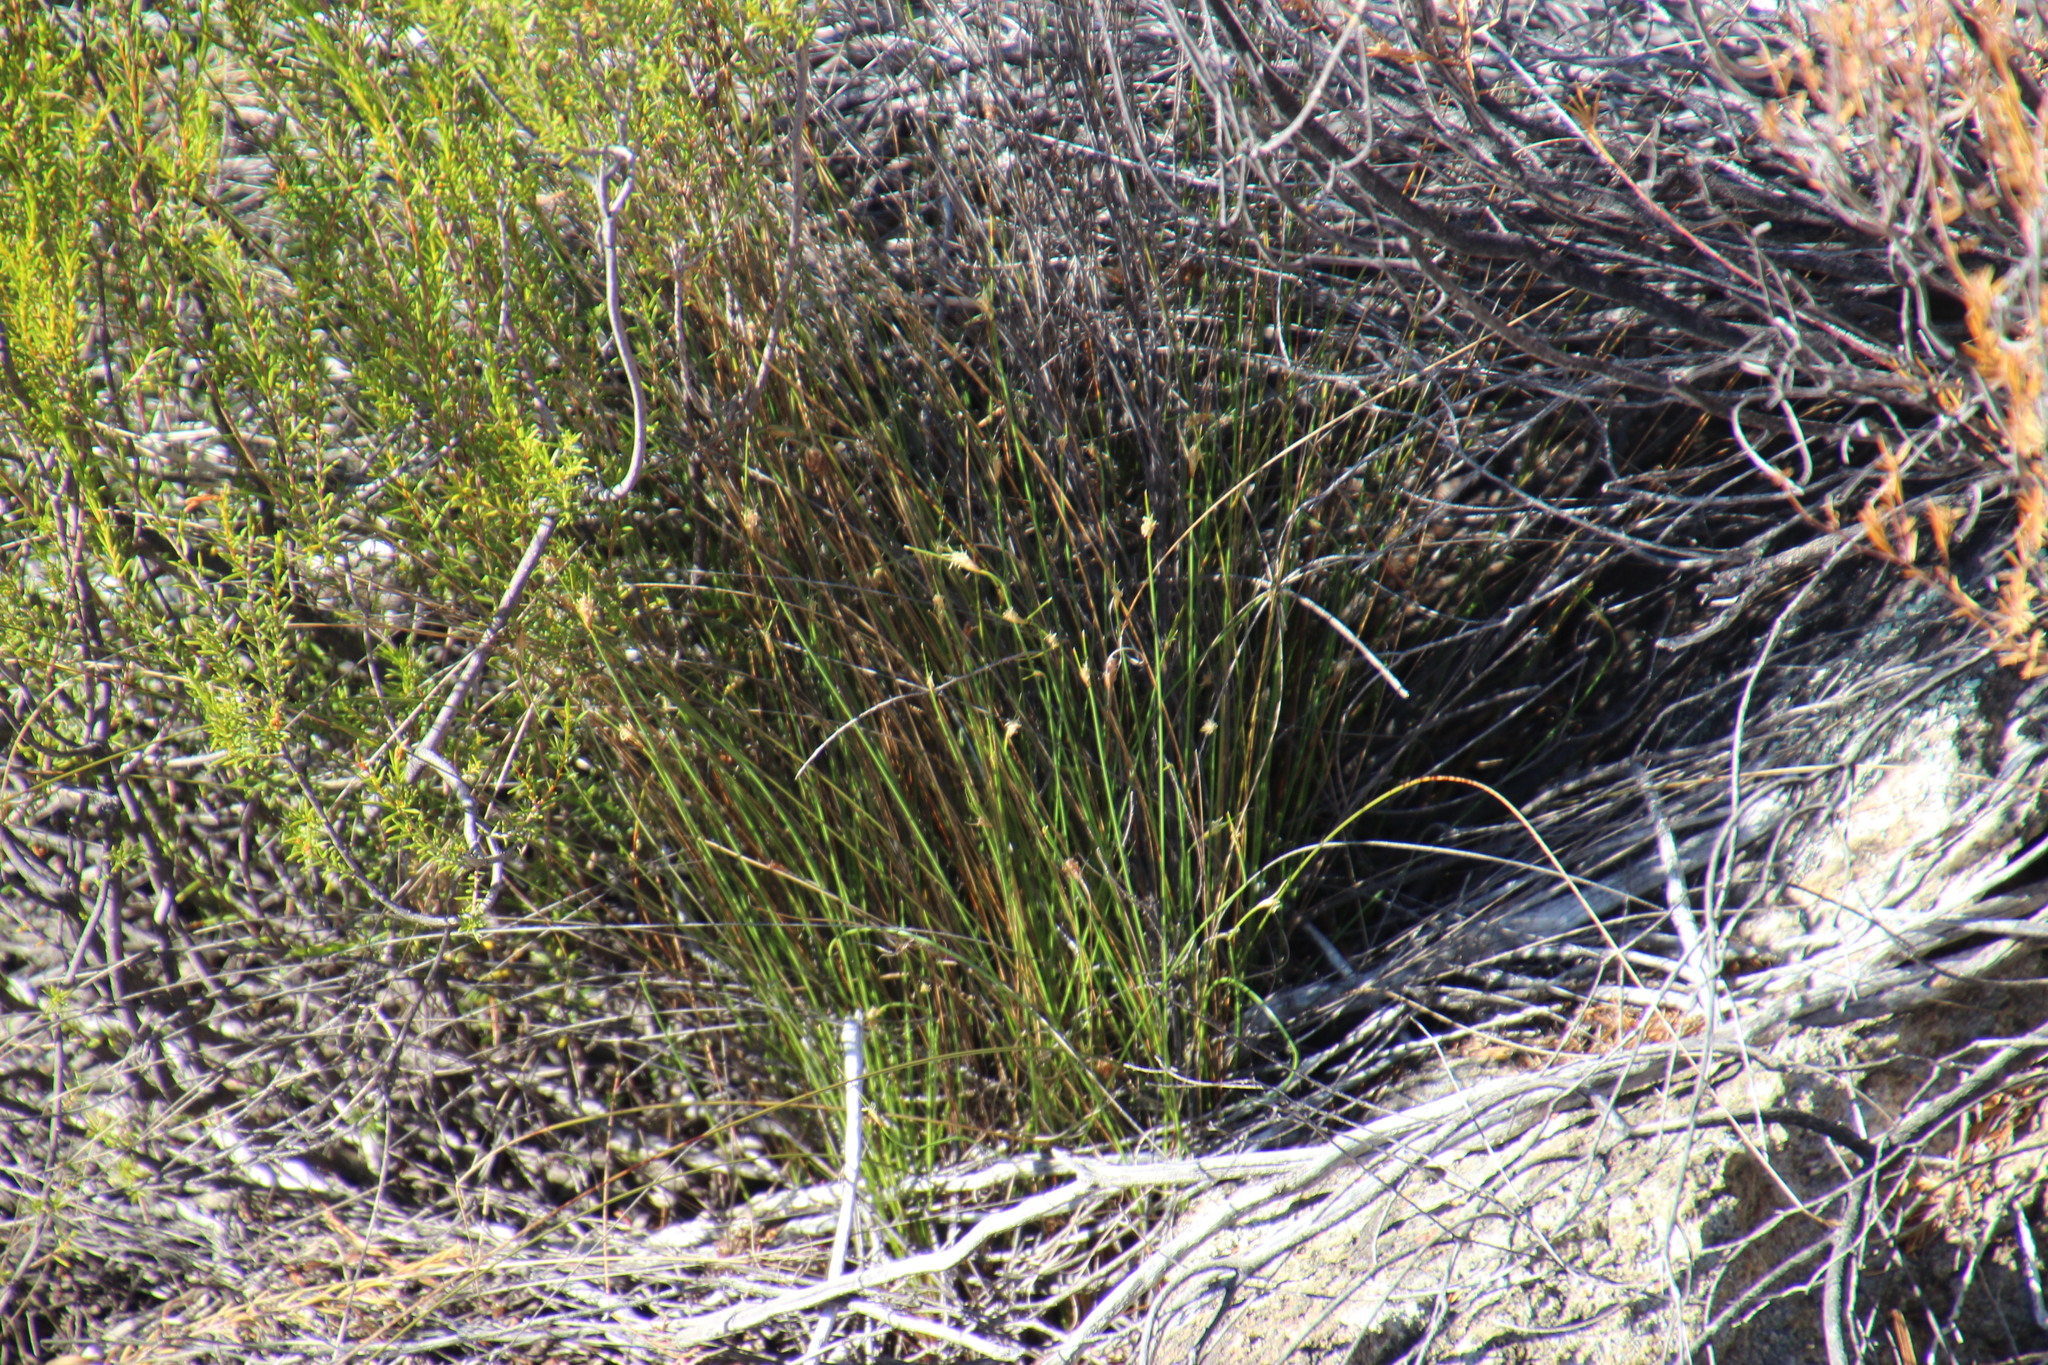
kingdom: Plantae
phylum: Tracheophyta
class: Liliopsida
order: Poales
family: Cyperaceae
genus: Ficinia
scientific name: Ficinia nigrescens
